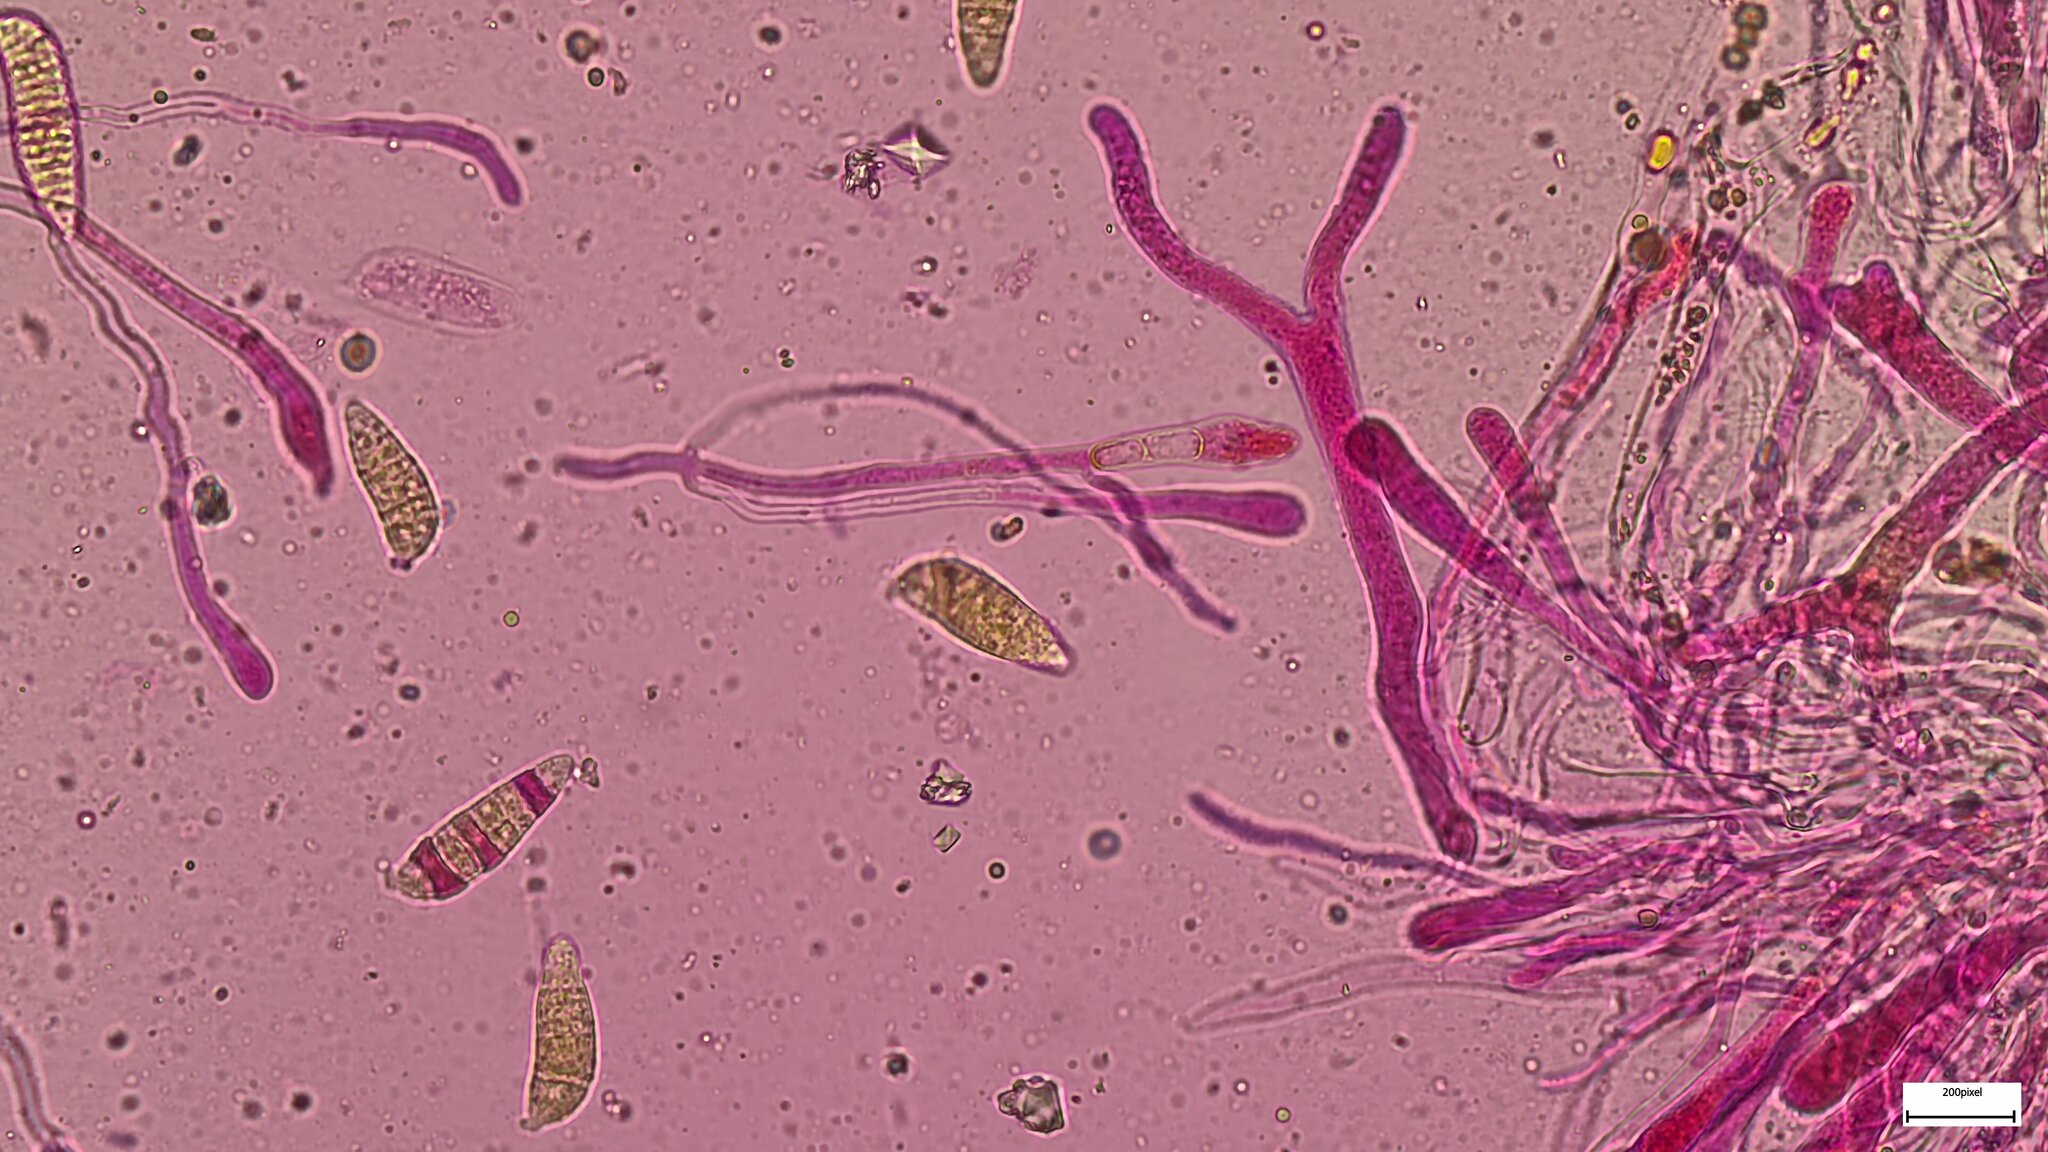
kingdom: Fungi
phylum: Basidiomycota
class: Dacrymycetes
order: Dacrymycetales
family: Dacrymycetaceae
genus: Dacrymyces
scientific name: Dacrymyces chrysospermus
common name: Orange jelly spot
